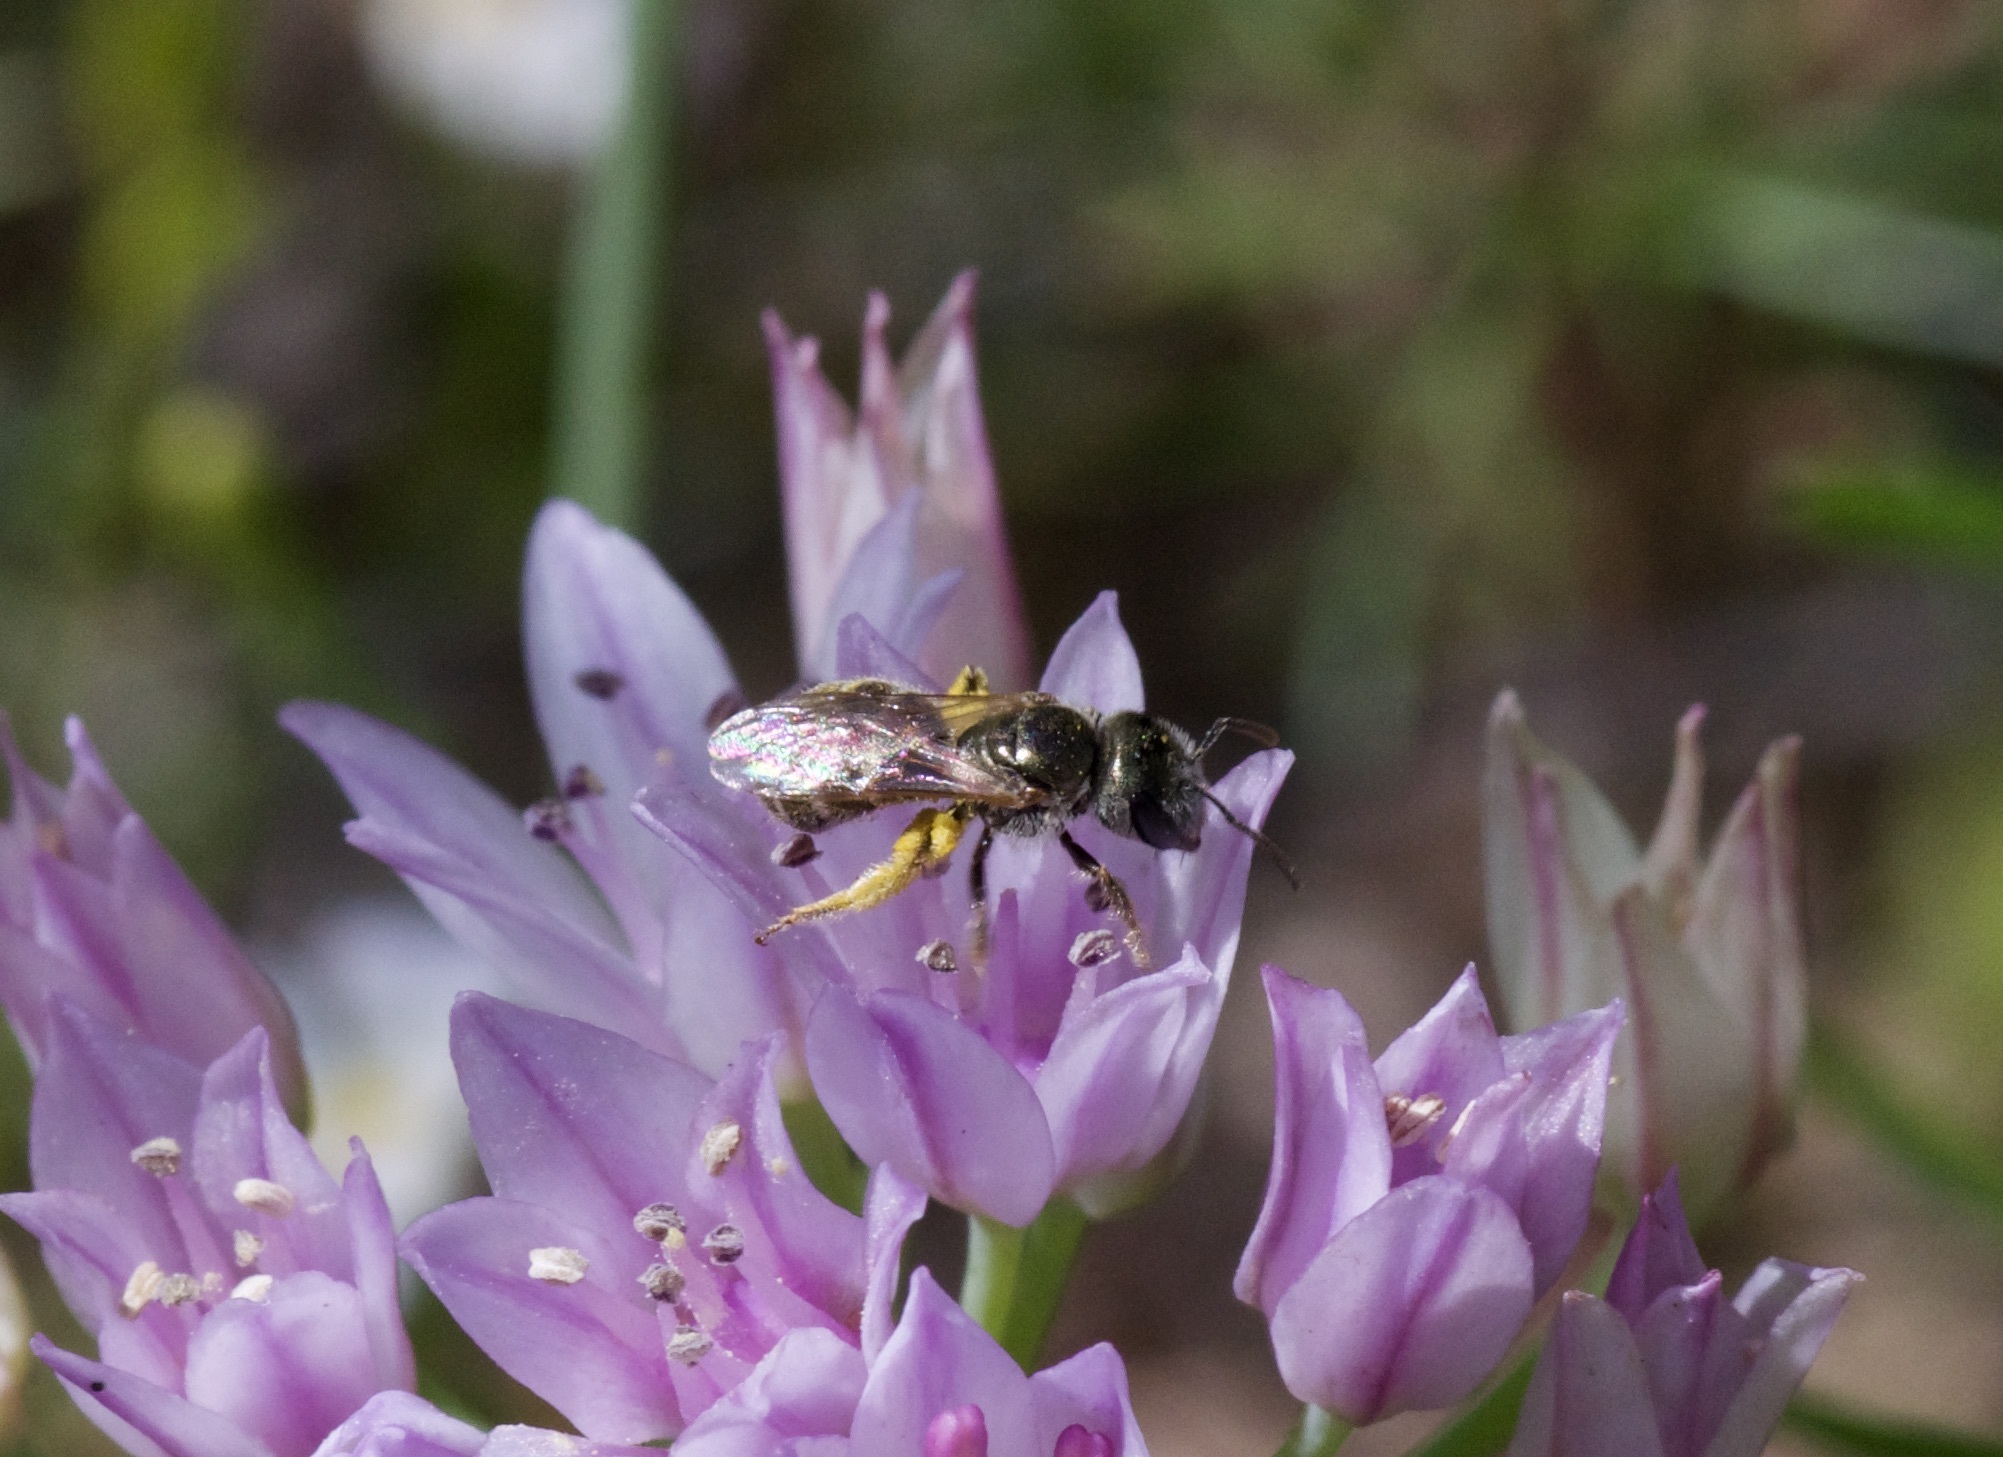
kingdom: Animalia
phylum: Arthropoda
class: Insecta
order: Hymenoptera
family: Halictidae
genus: Halictus
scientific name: Halictus tripartitus
